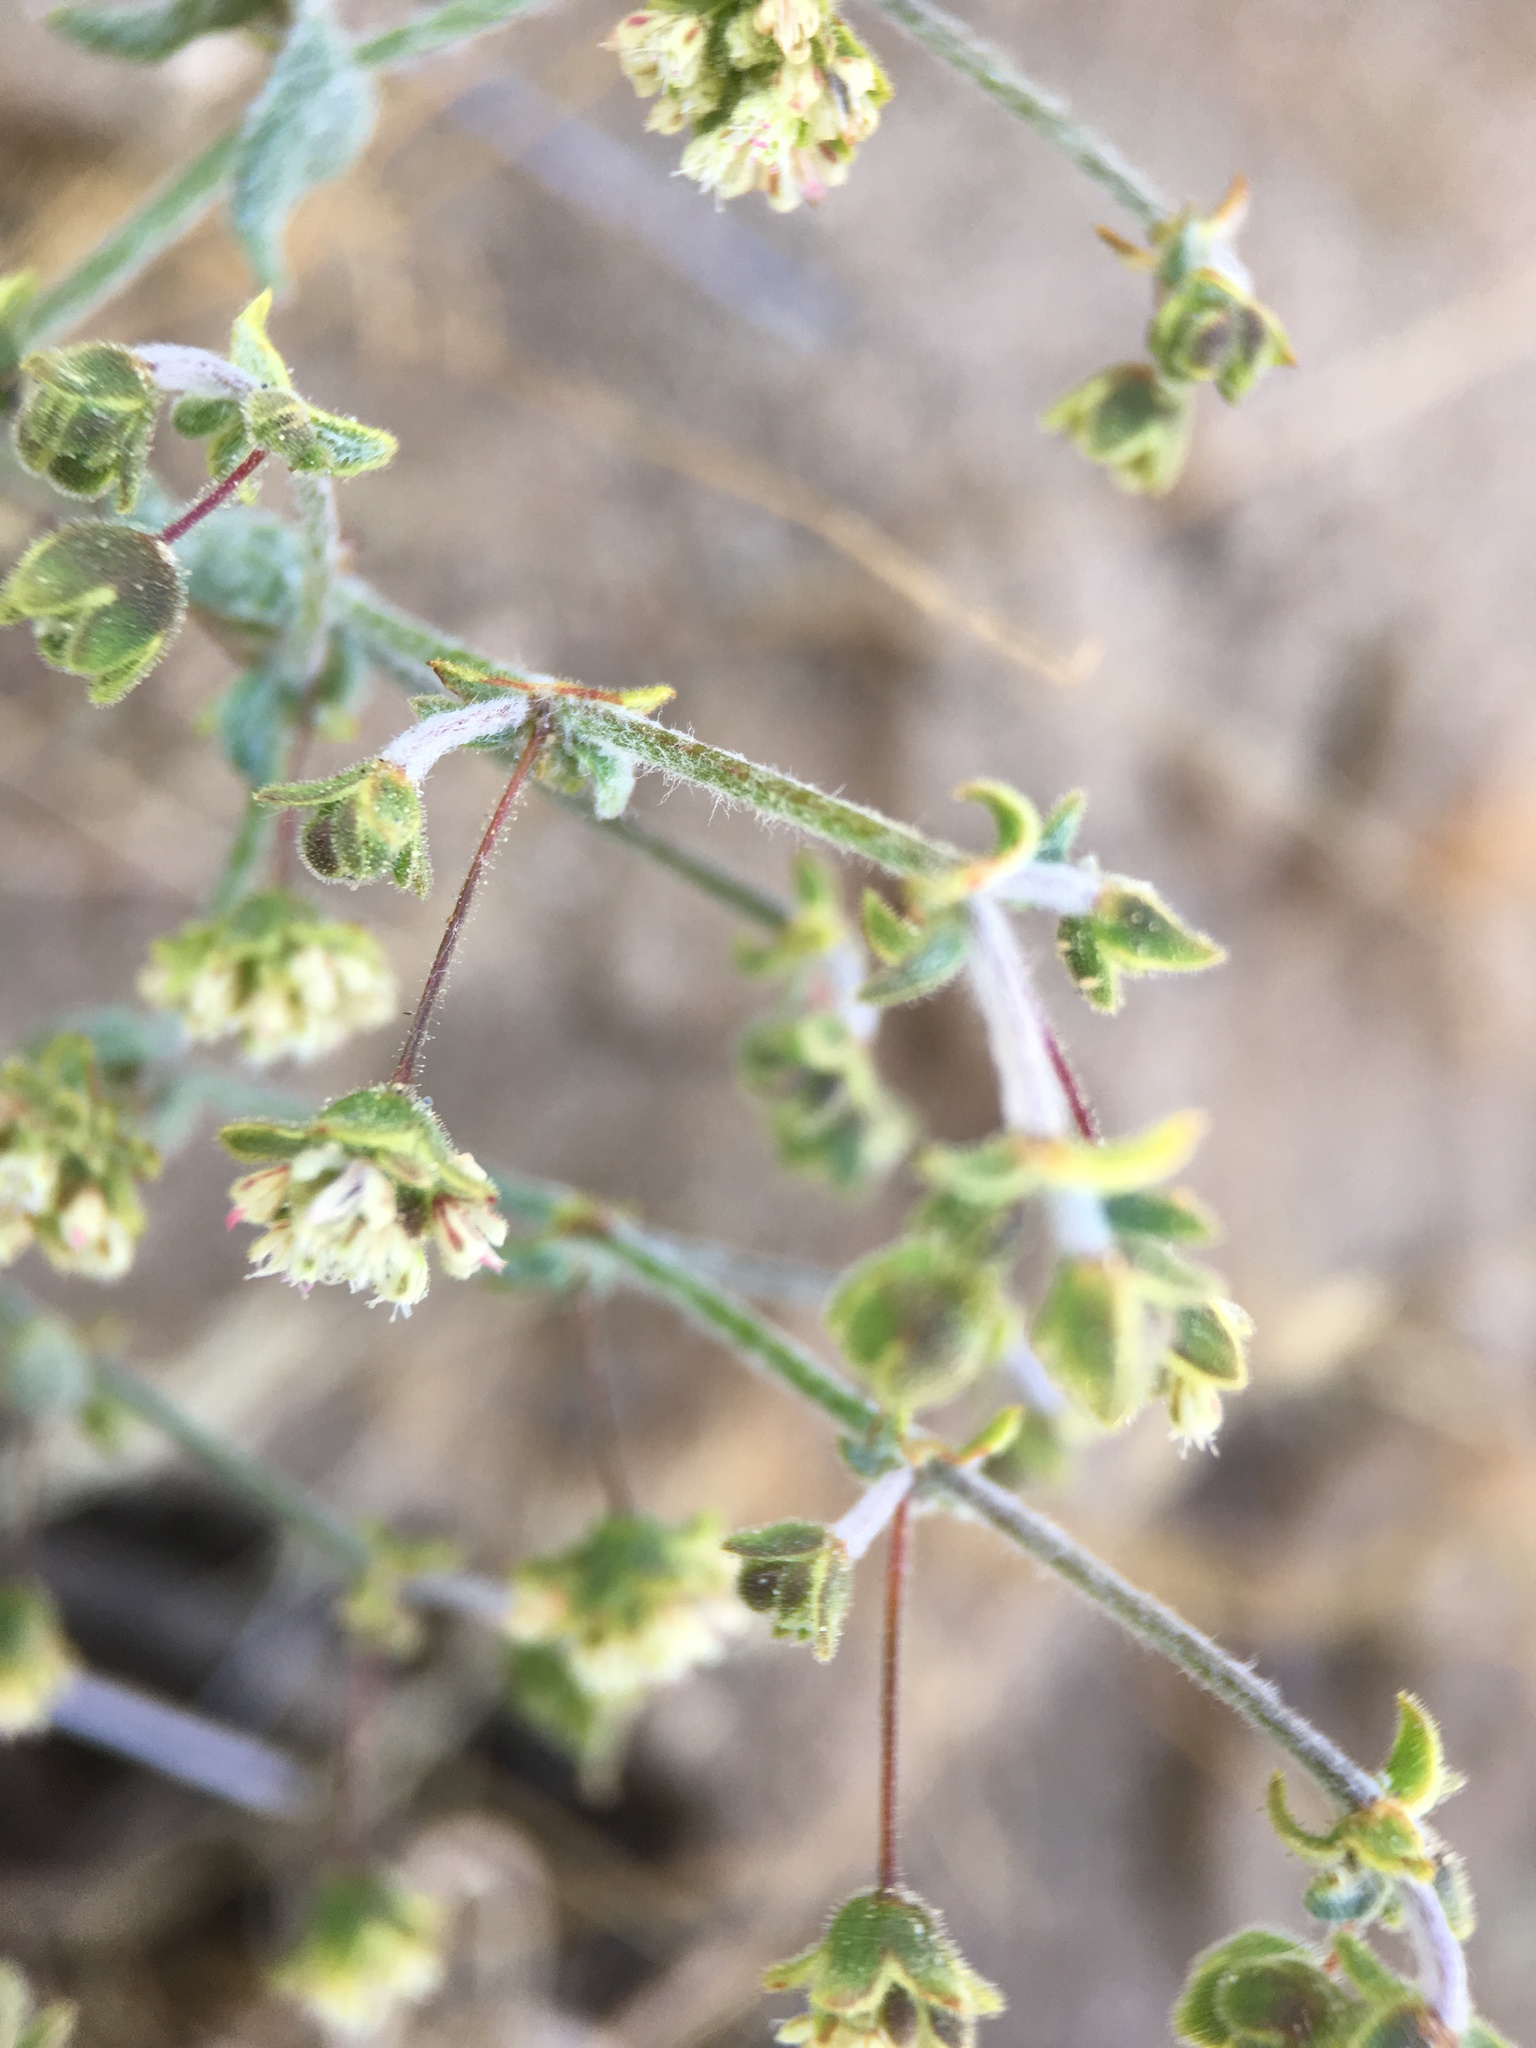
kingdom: Plantae
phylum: Tracheophyta
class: Magnoliopsida
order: Caryophyllales
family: Polygonaceae
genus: Eriogonum
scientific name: Eriogonum viridescens
